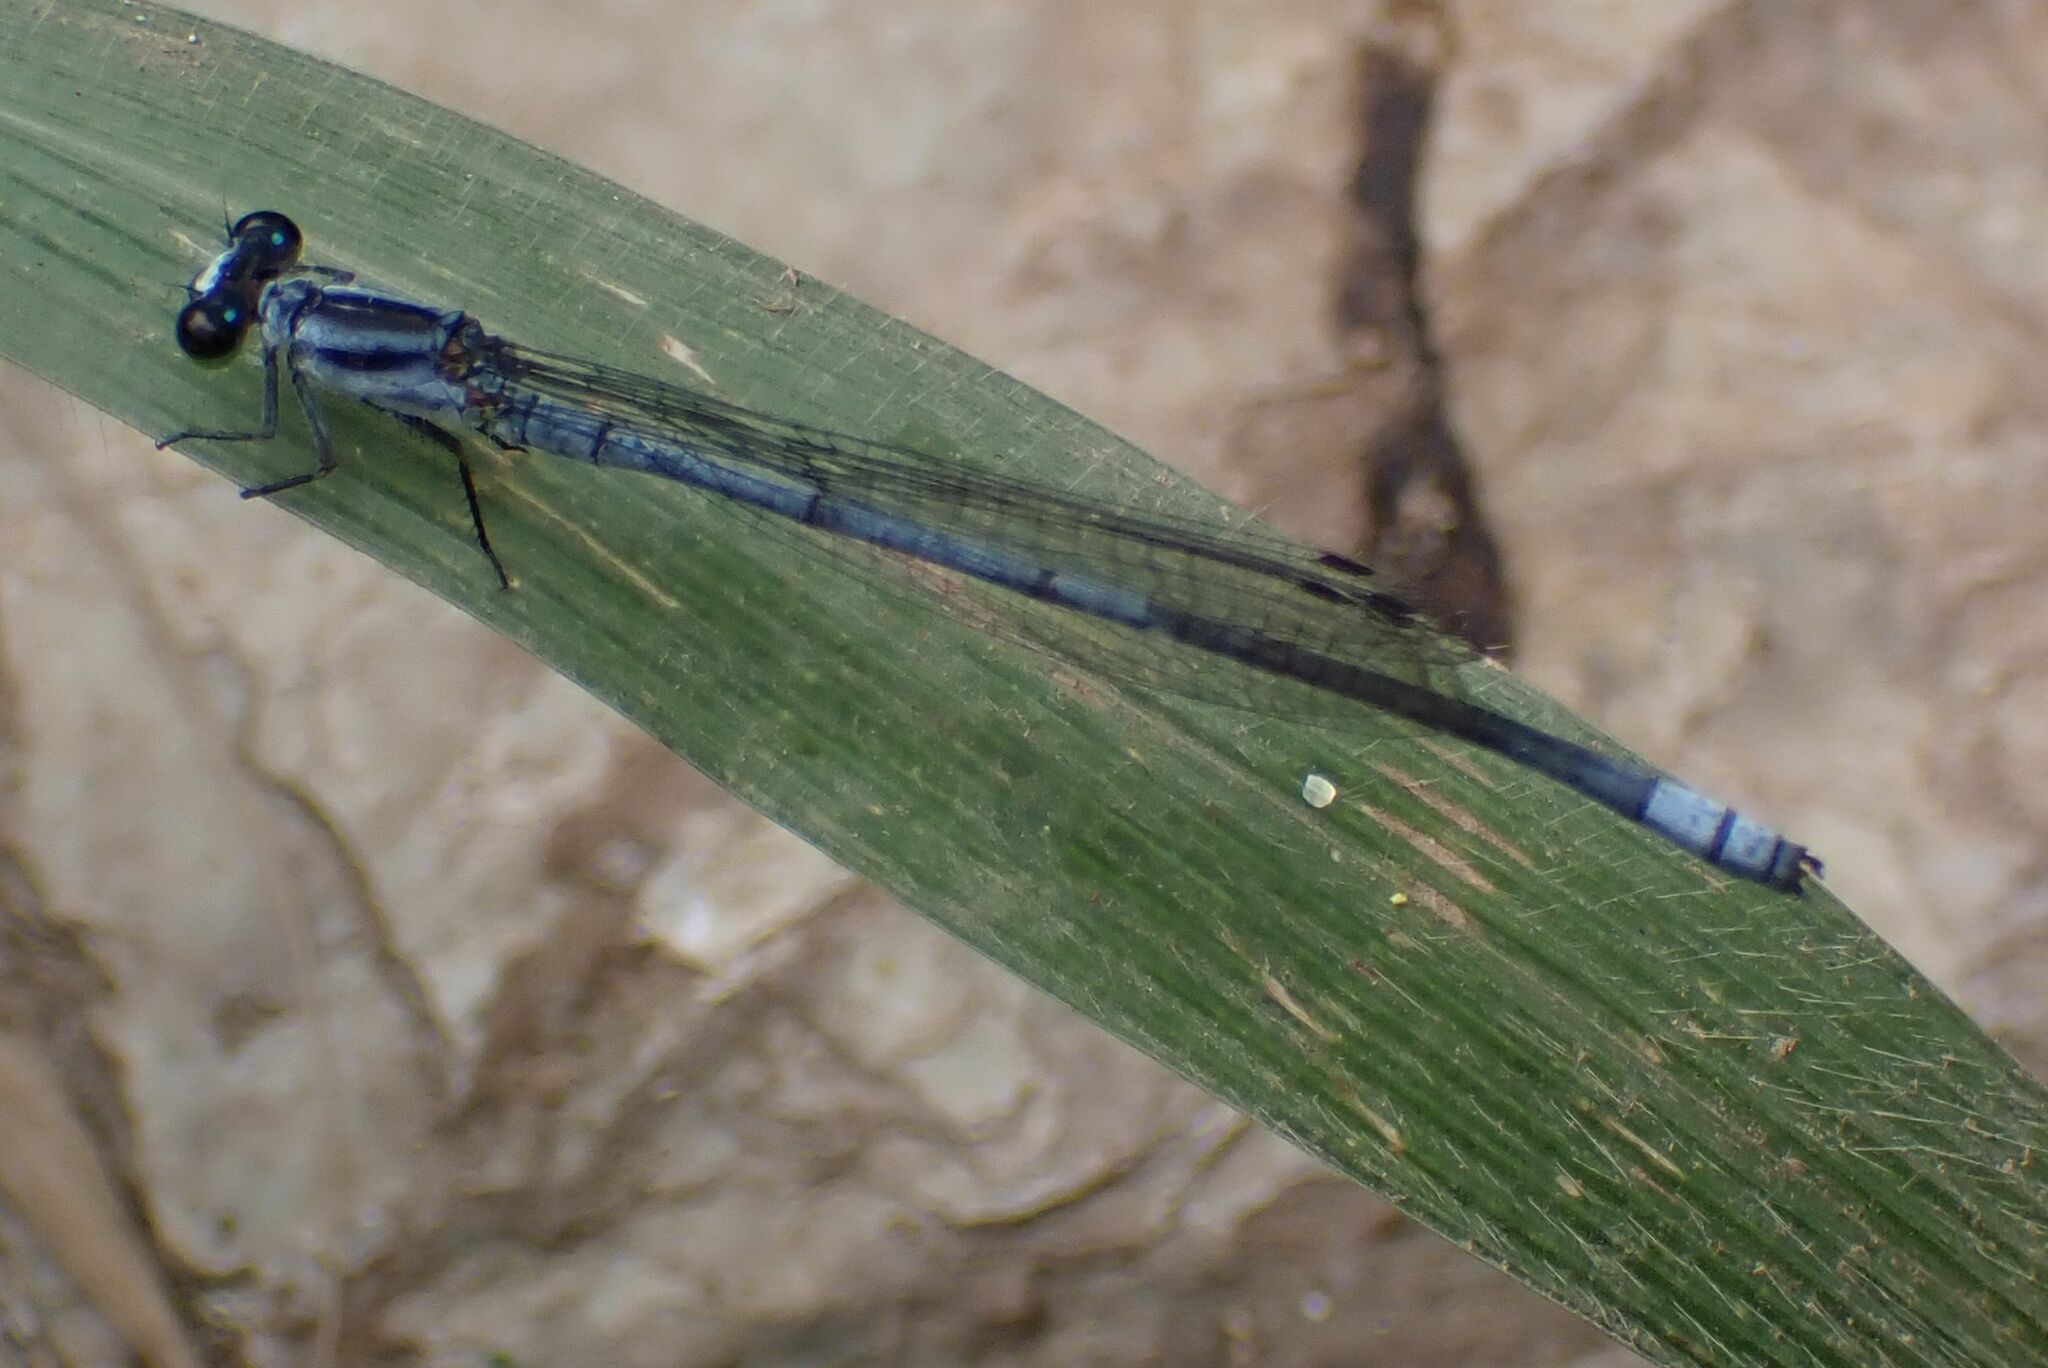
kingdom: Animalia
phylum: Arthropoda
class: Insecta
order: Odonata
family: Coenagrionidae
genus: Pseudagrion
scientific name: Pseudagrion kersteni
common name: Powder-faced sprite
